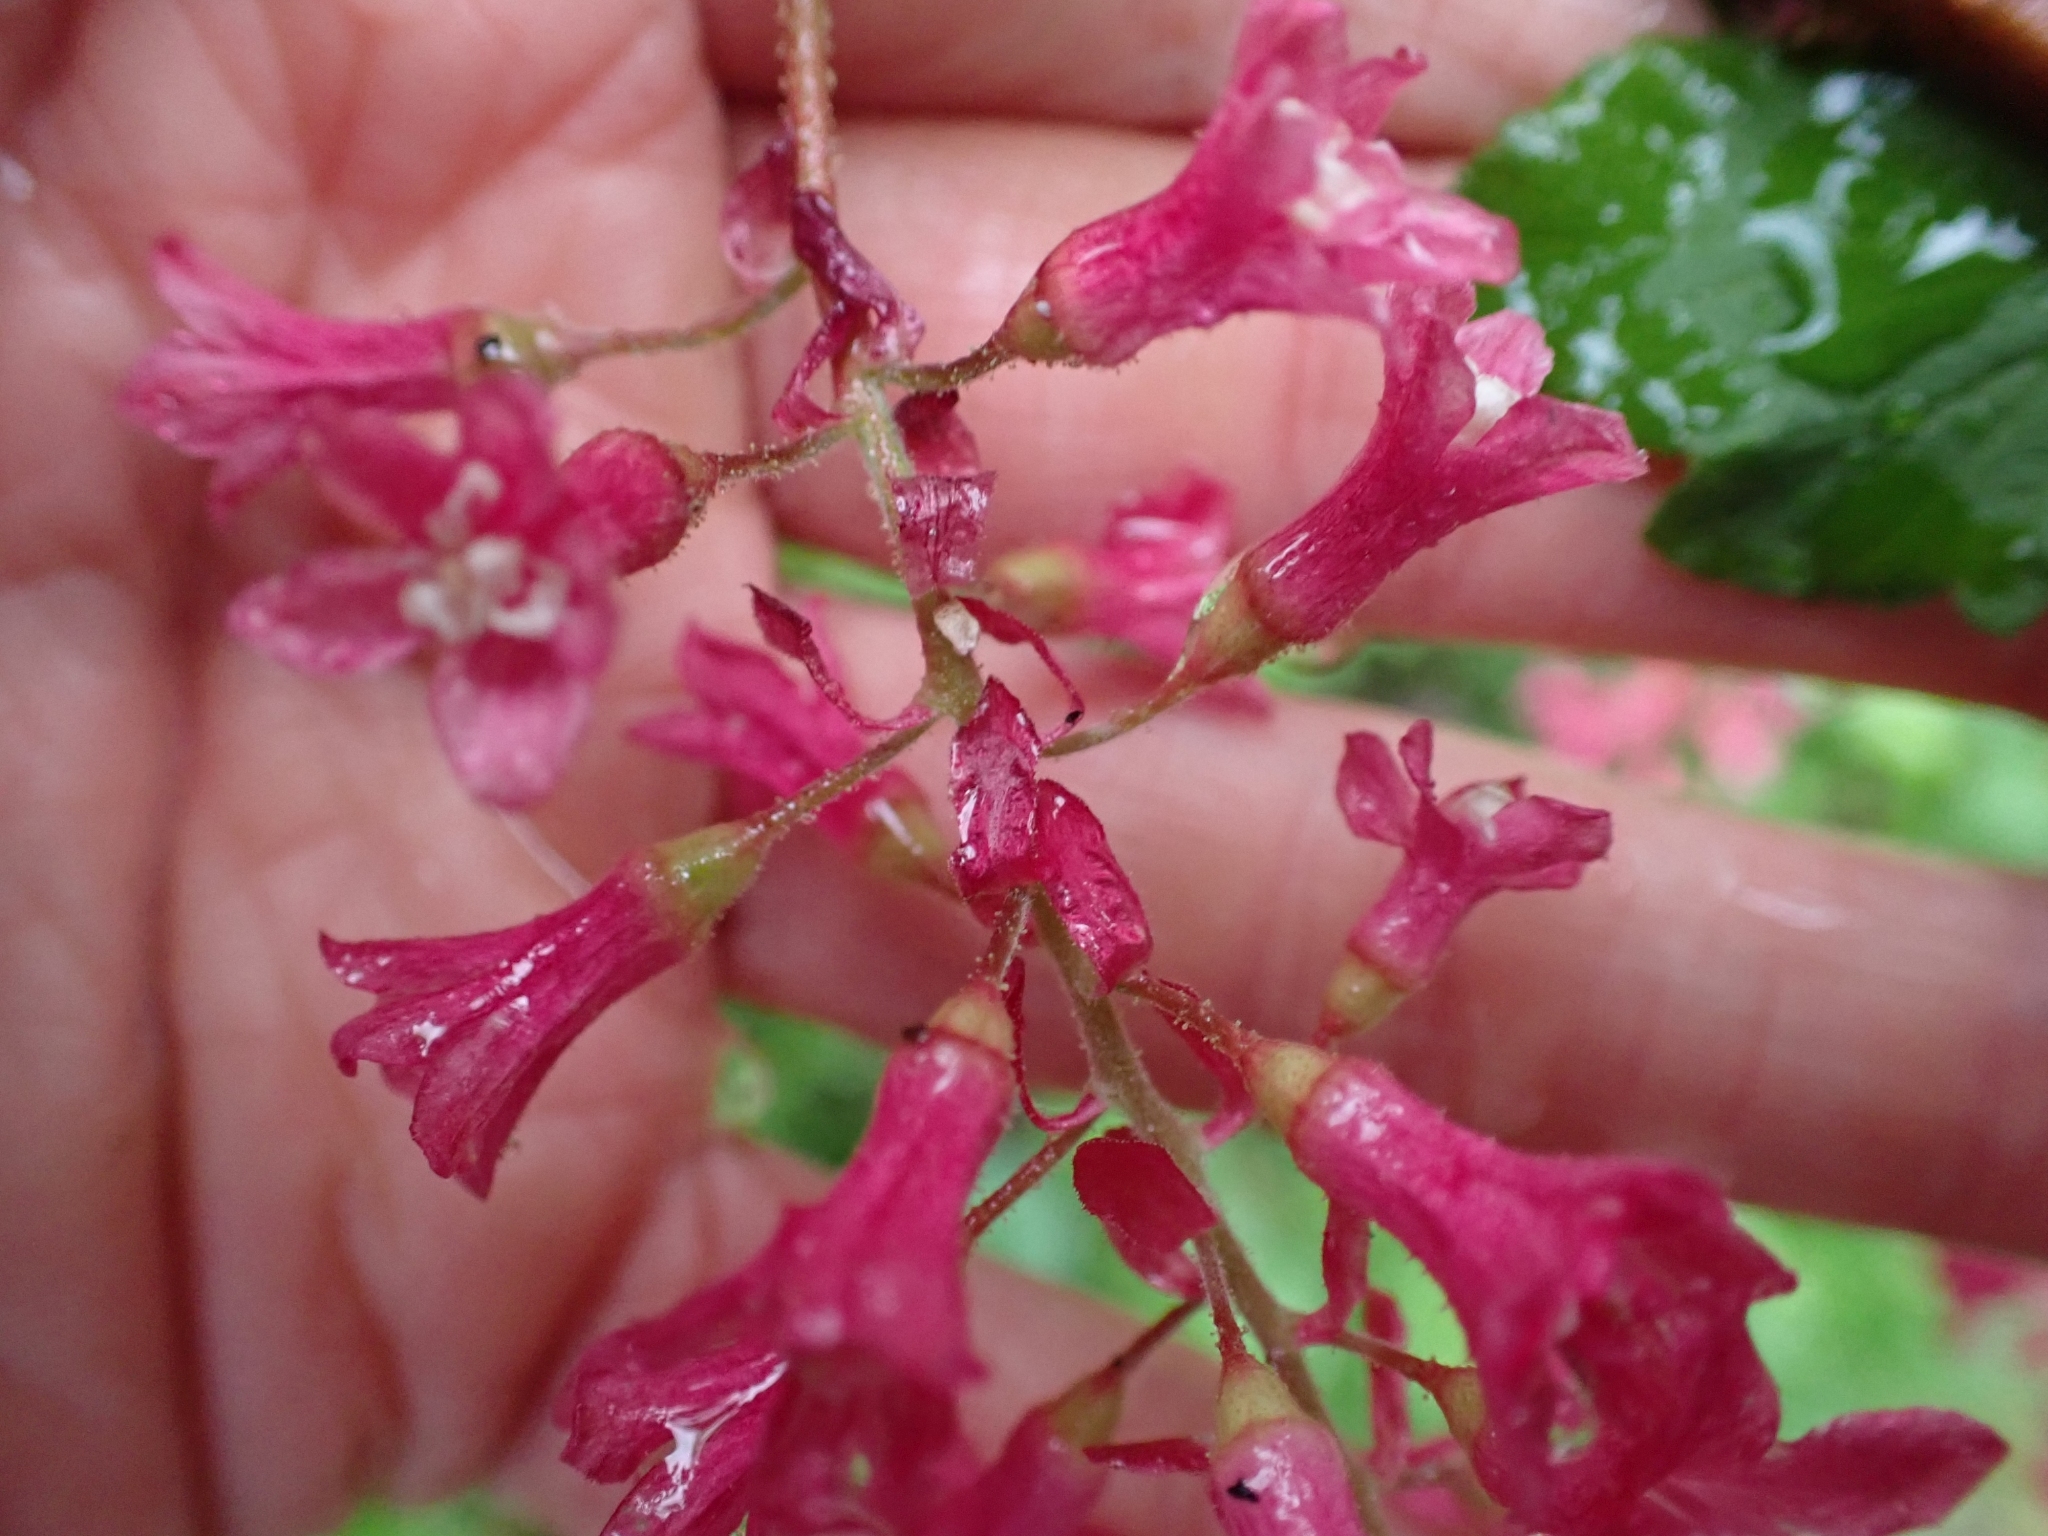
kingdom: Plantae
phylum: Tracheophyta
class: Magnoliopsida
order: Saxifragales
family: Grossulariaceae
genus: Ribes
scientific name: Ribes sanguineum
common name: Flowering currant
